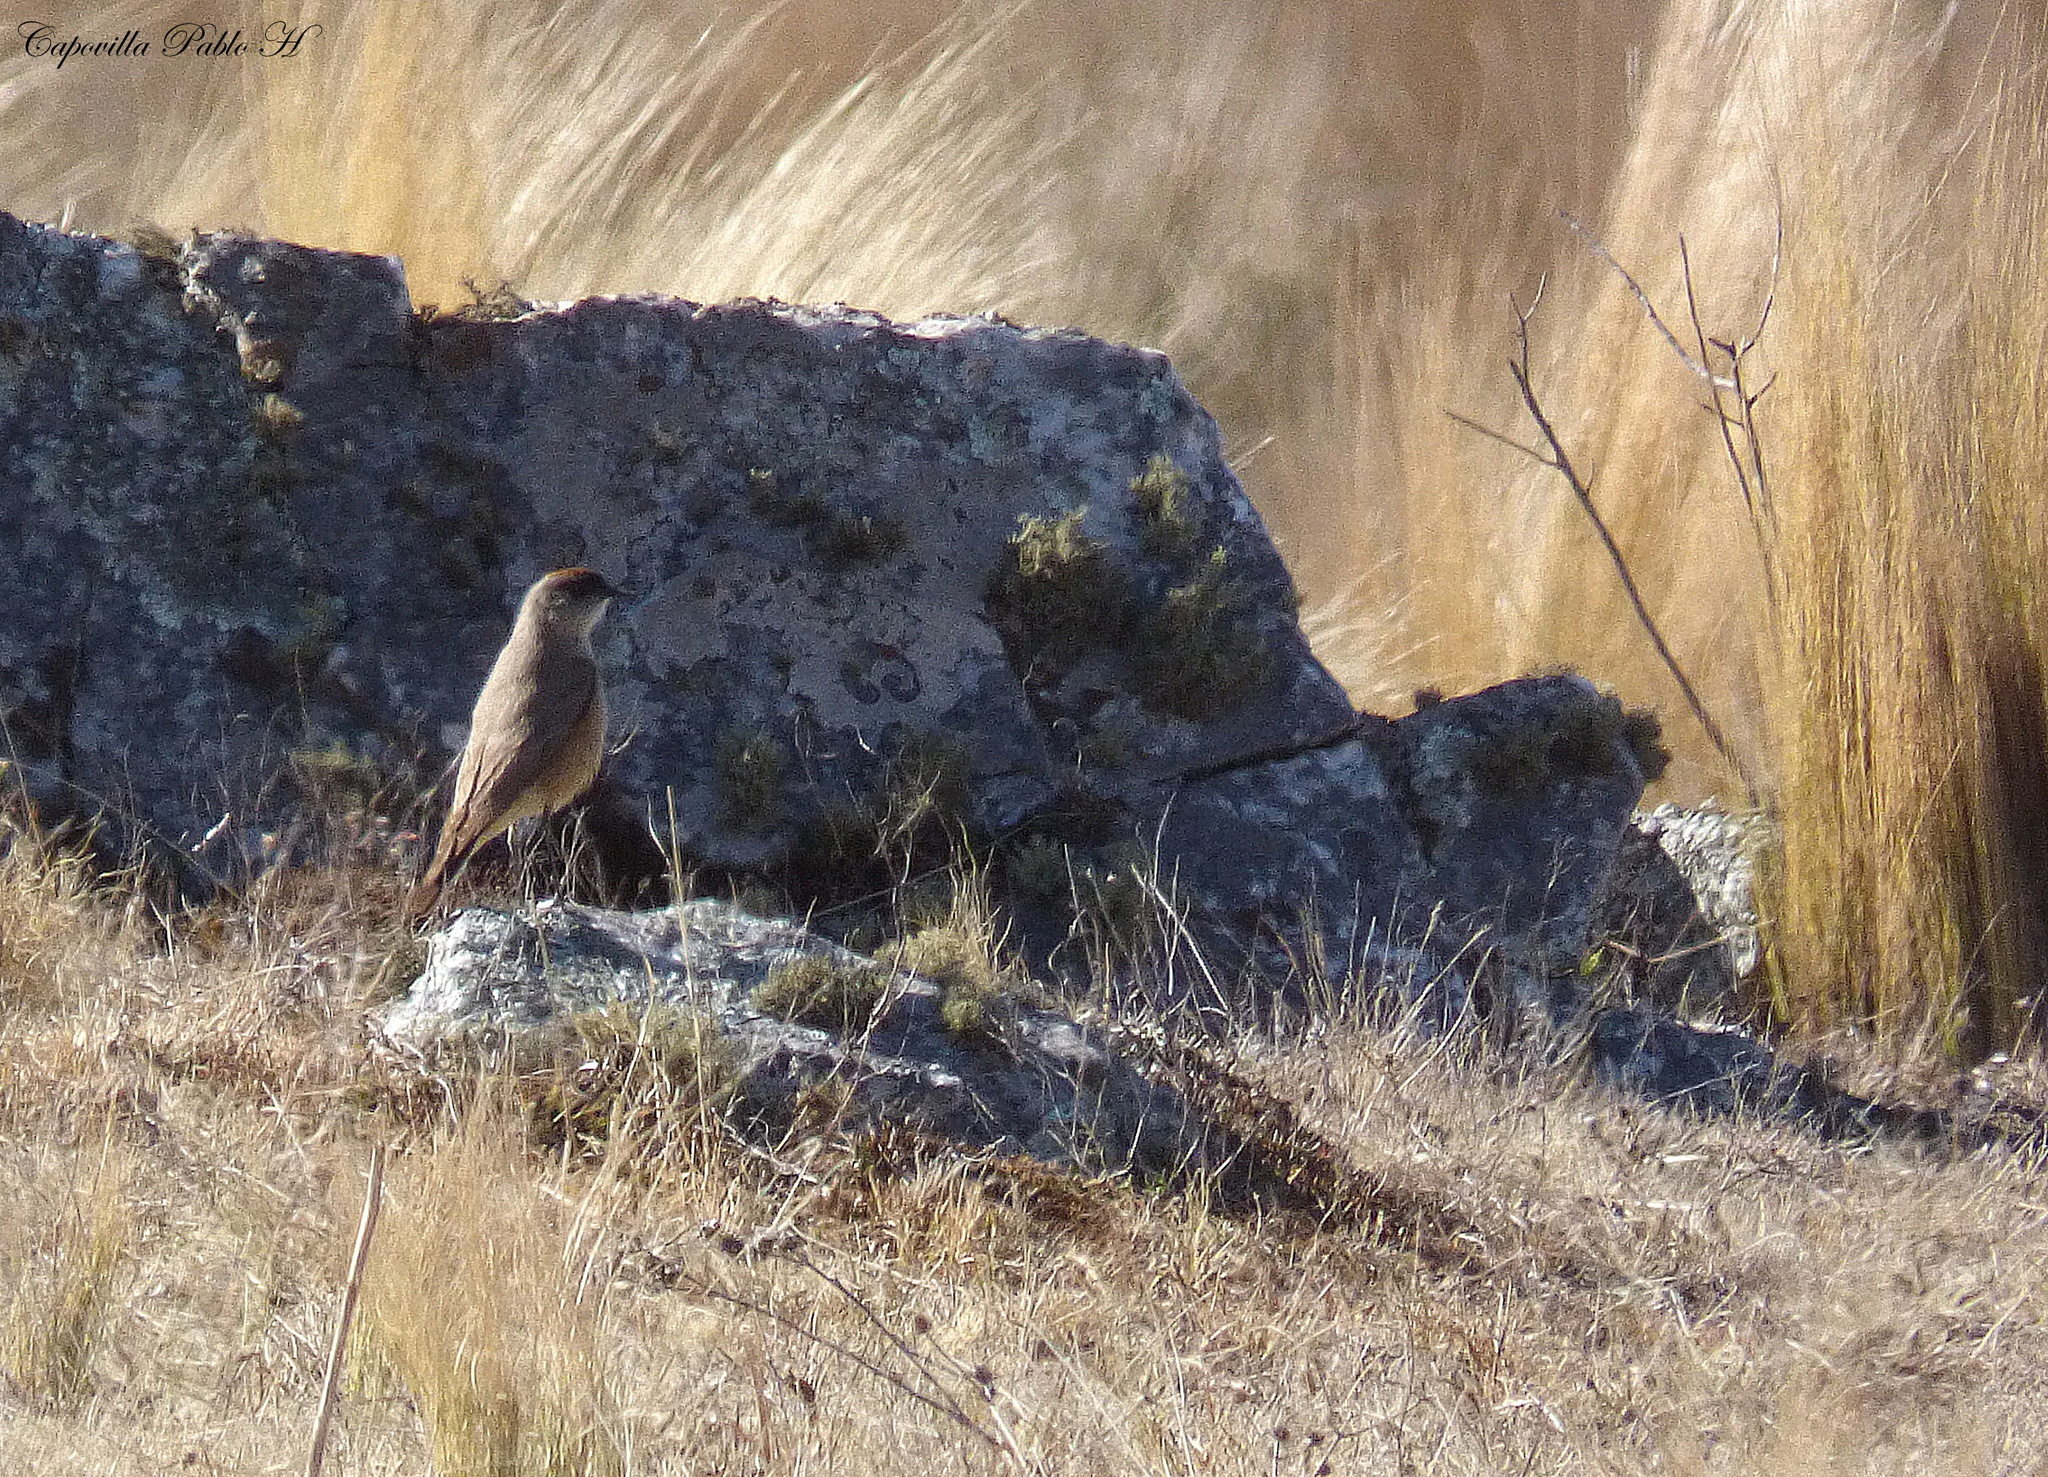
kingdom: Animalia
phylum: Chordata
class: Aves
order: Passeriformes
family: Tyrannidae
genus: Muscisaxicola
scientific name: Muscisaxicola capistratus
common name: Cinnamon-bellied ground tyrant
